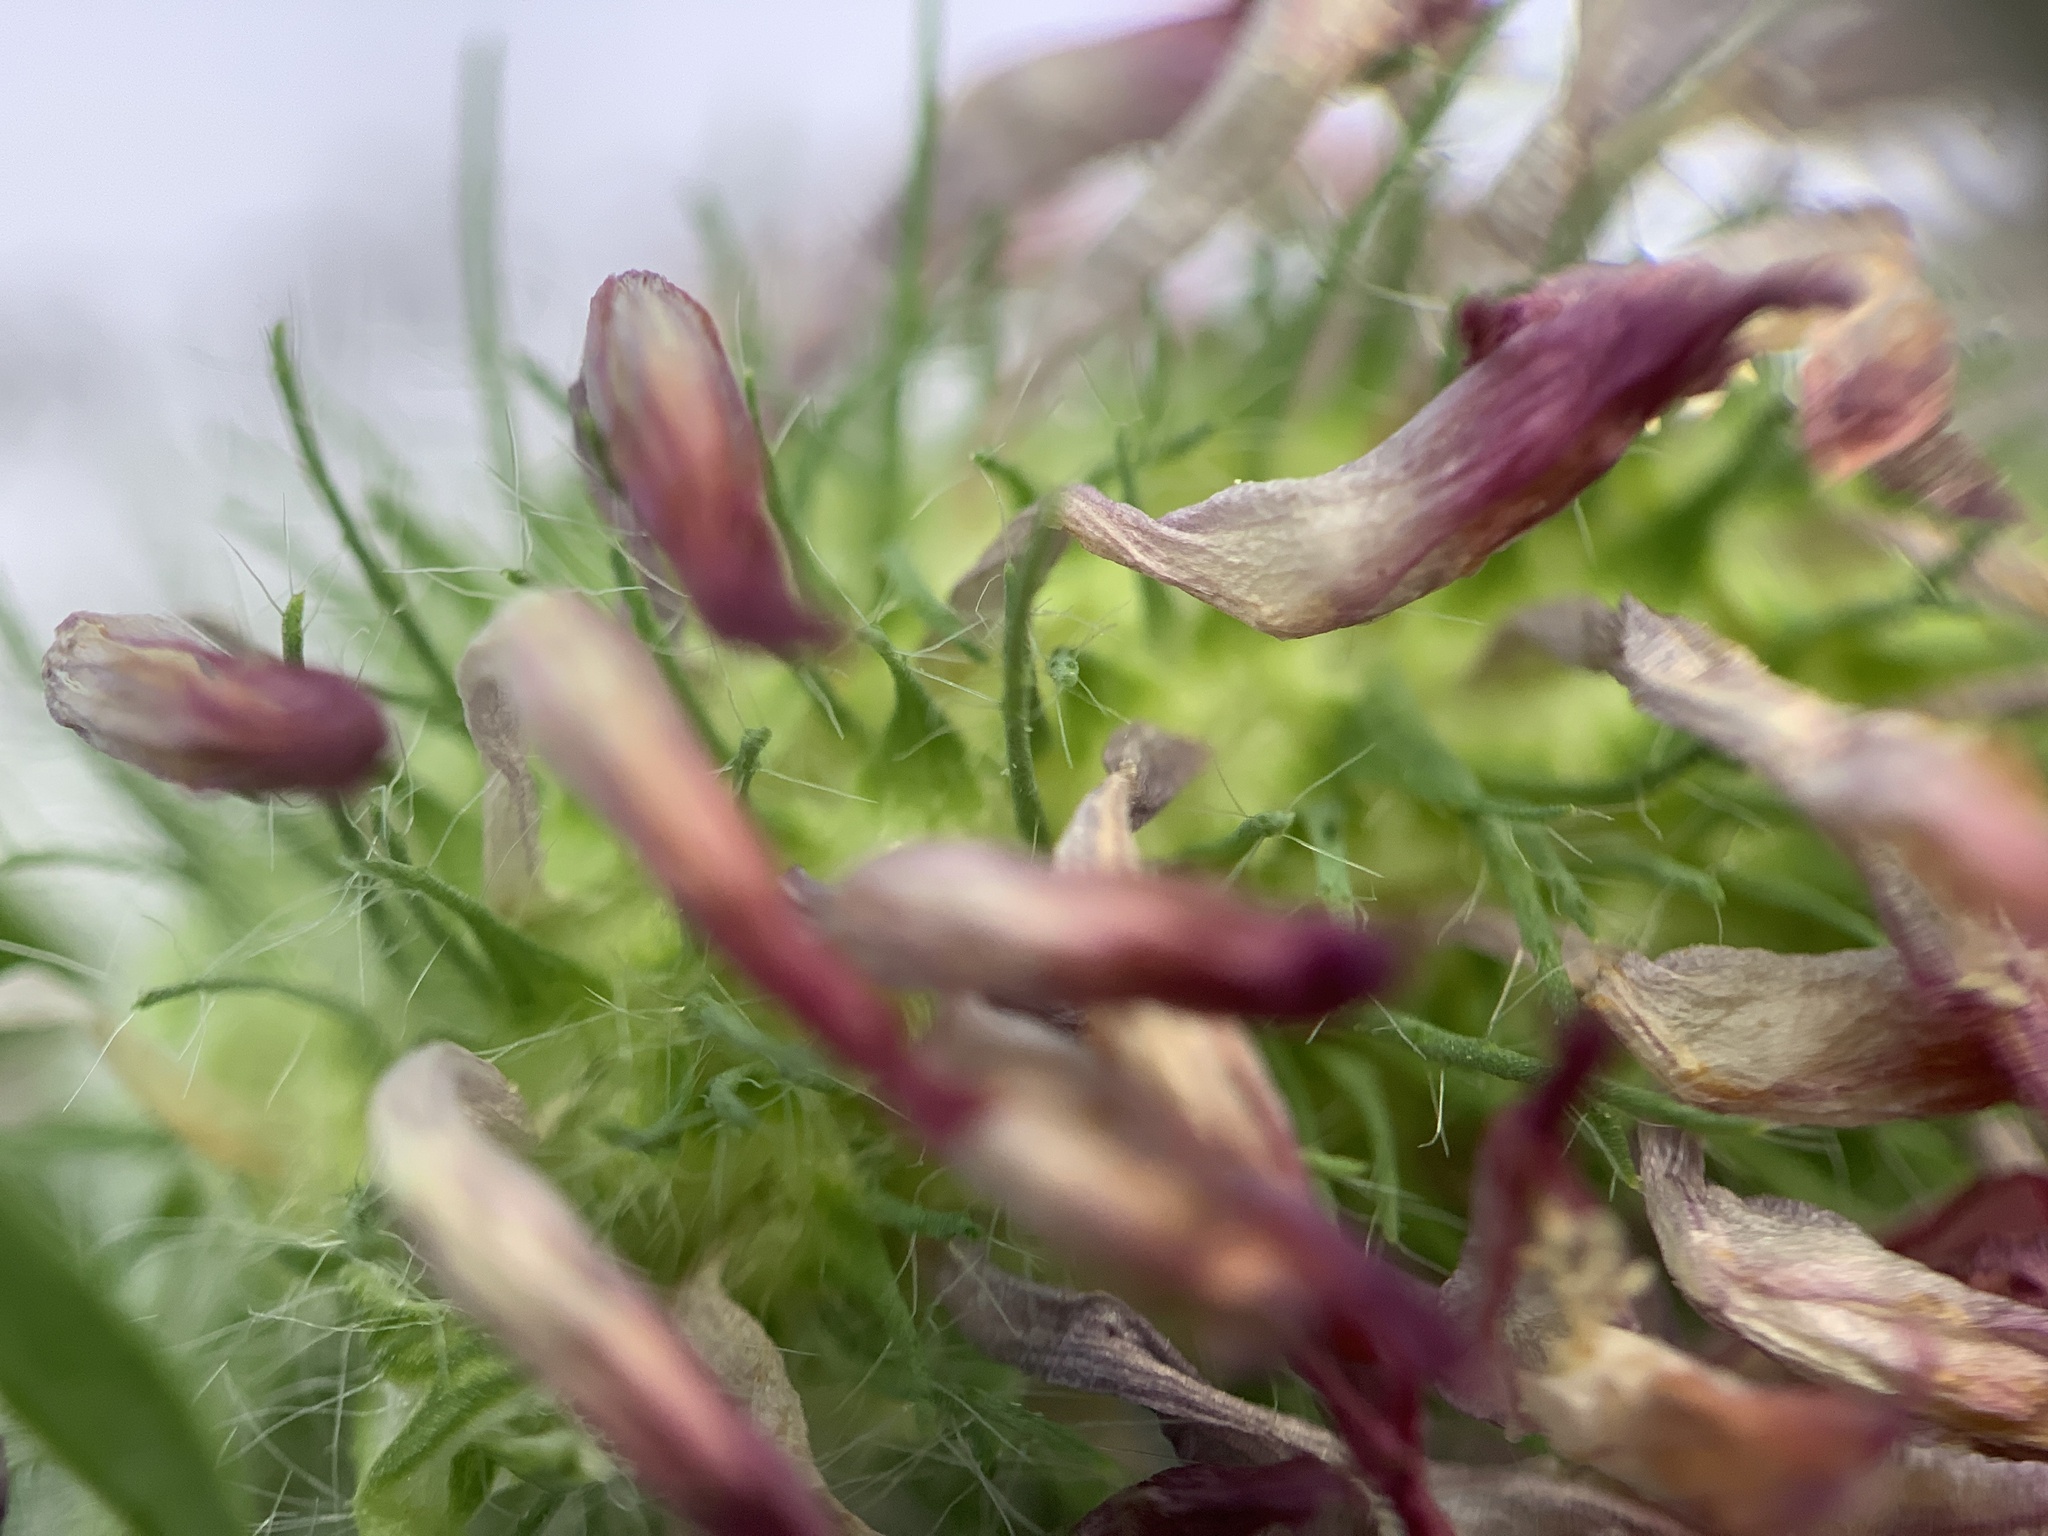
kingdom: Plantae
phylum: Tracheophyta
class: Magnoliopsida
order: Fabales
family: Fabaceae
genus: Trifolium
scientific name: Trifolium pratense
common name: Red clover
